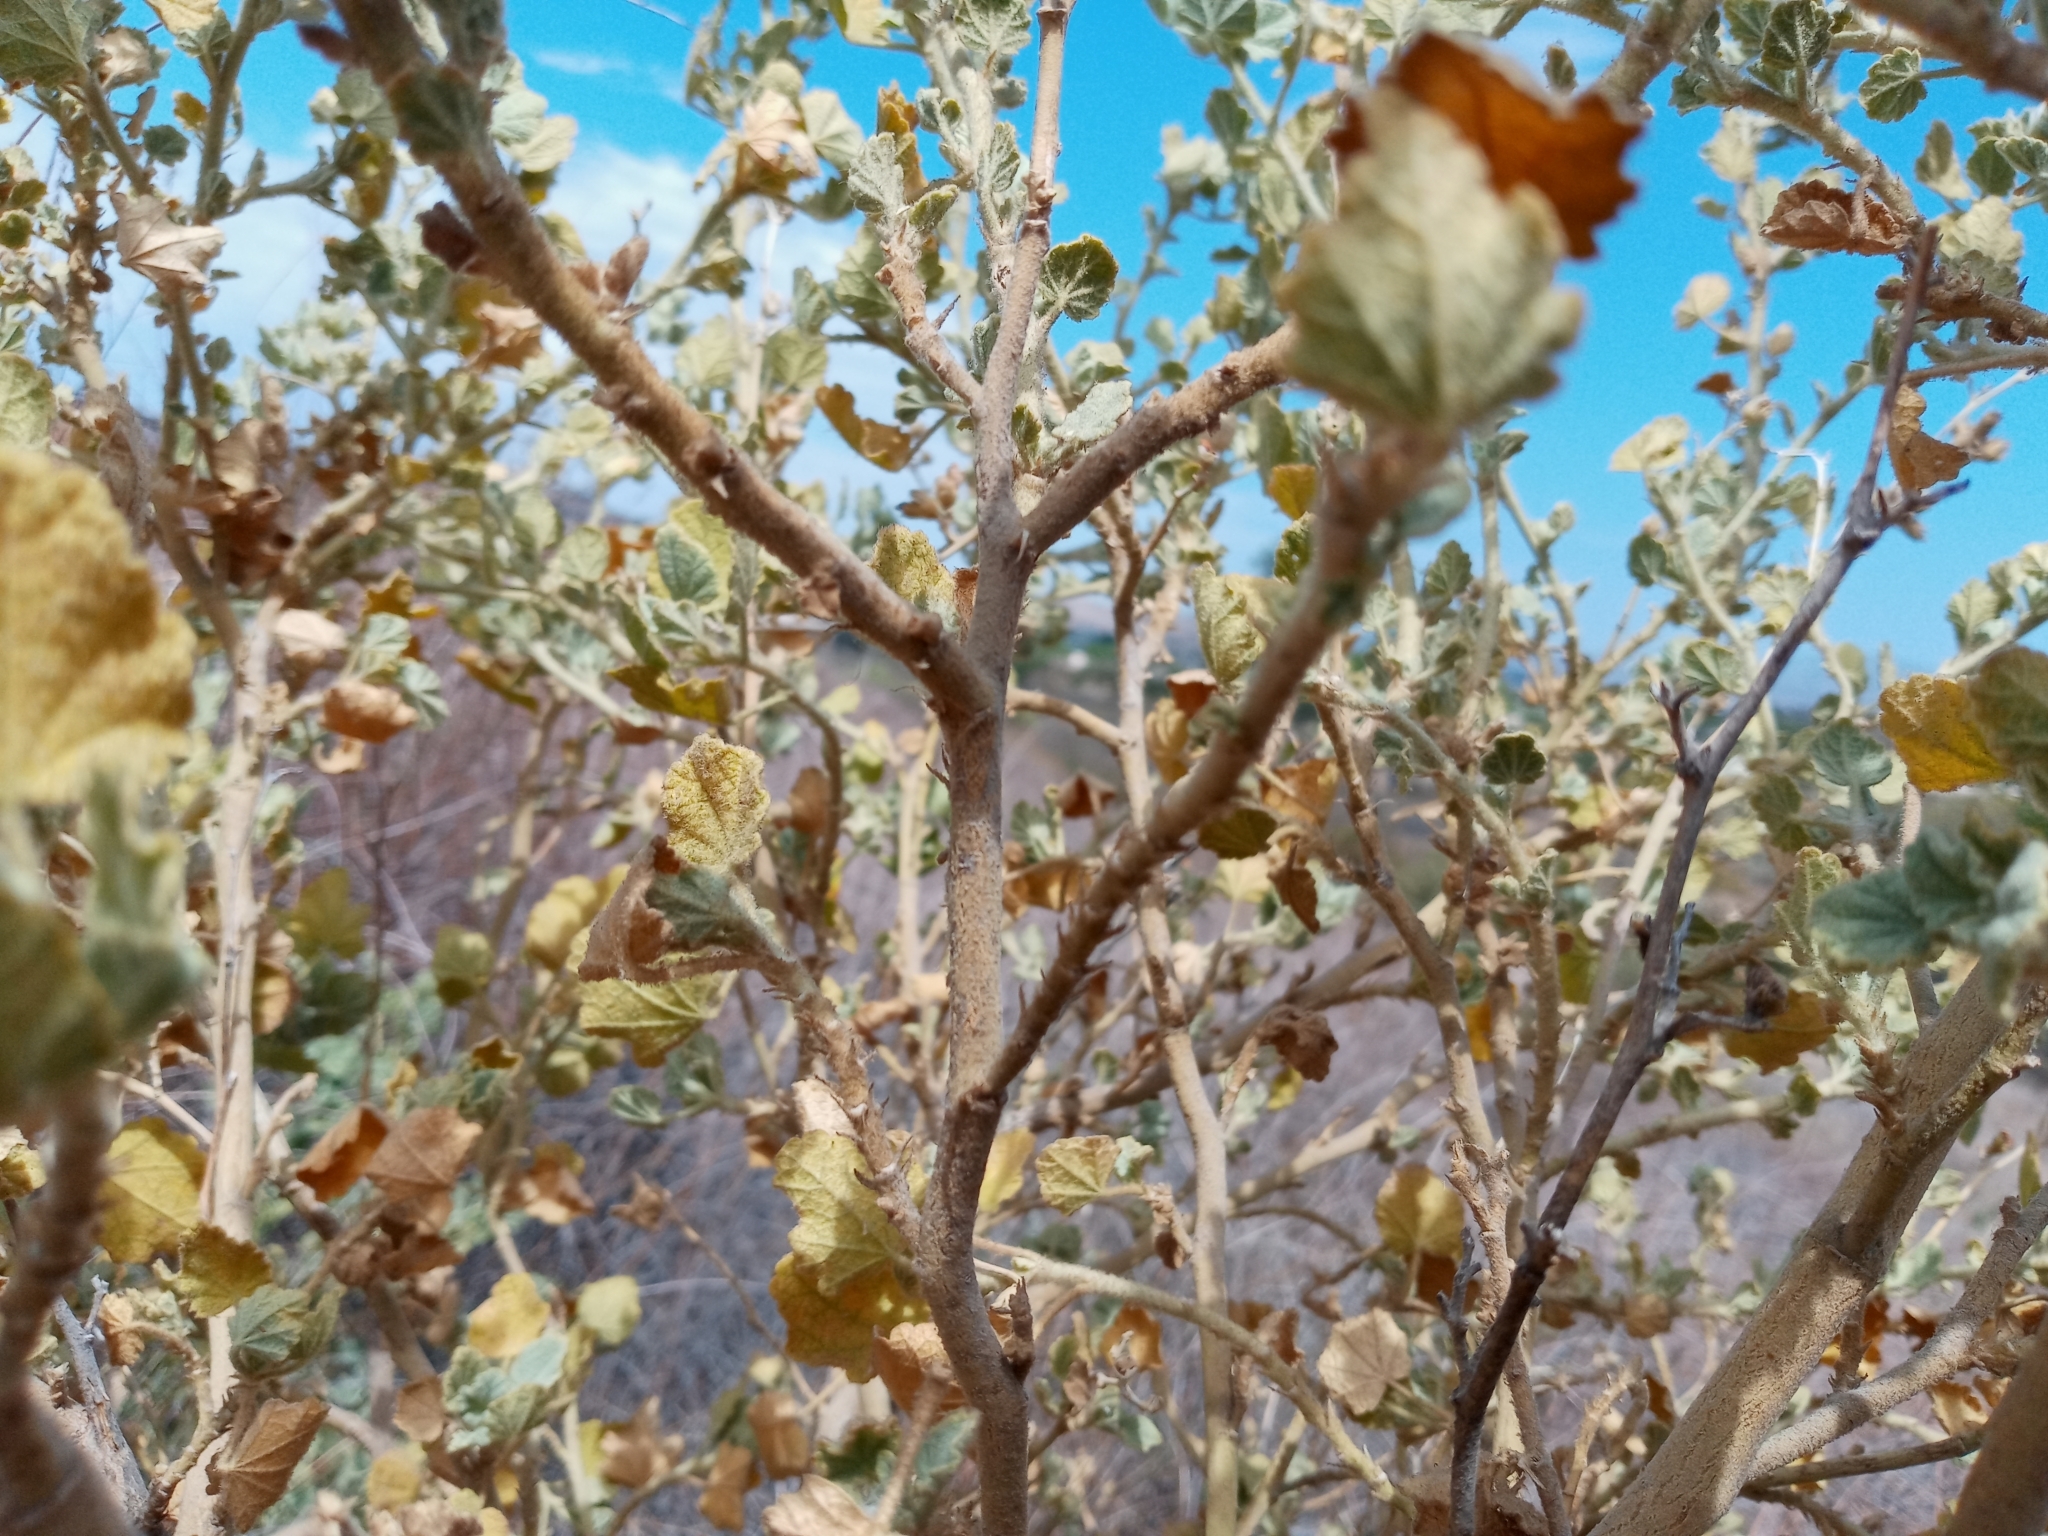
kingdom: Plantae
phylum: Tracheophyta
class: Magnoliopsida
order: Malvales
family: Malvaceae
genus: Malacothamnus
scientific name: Malacothamnus marrubioides
